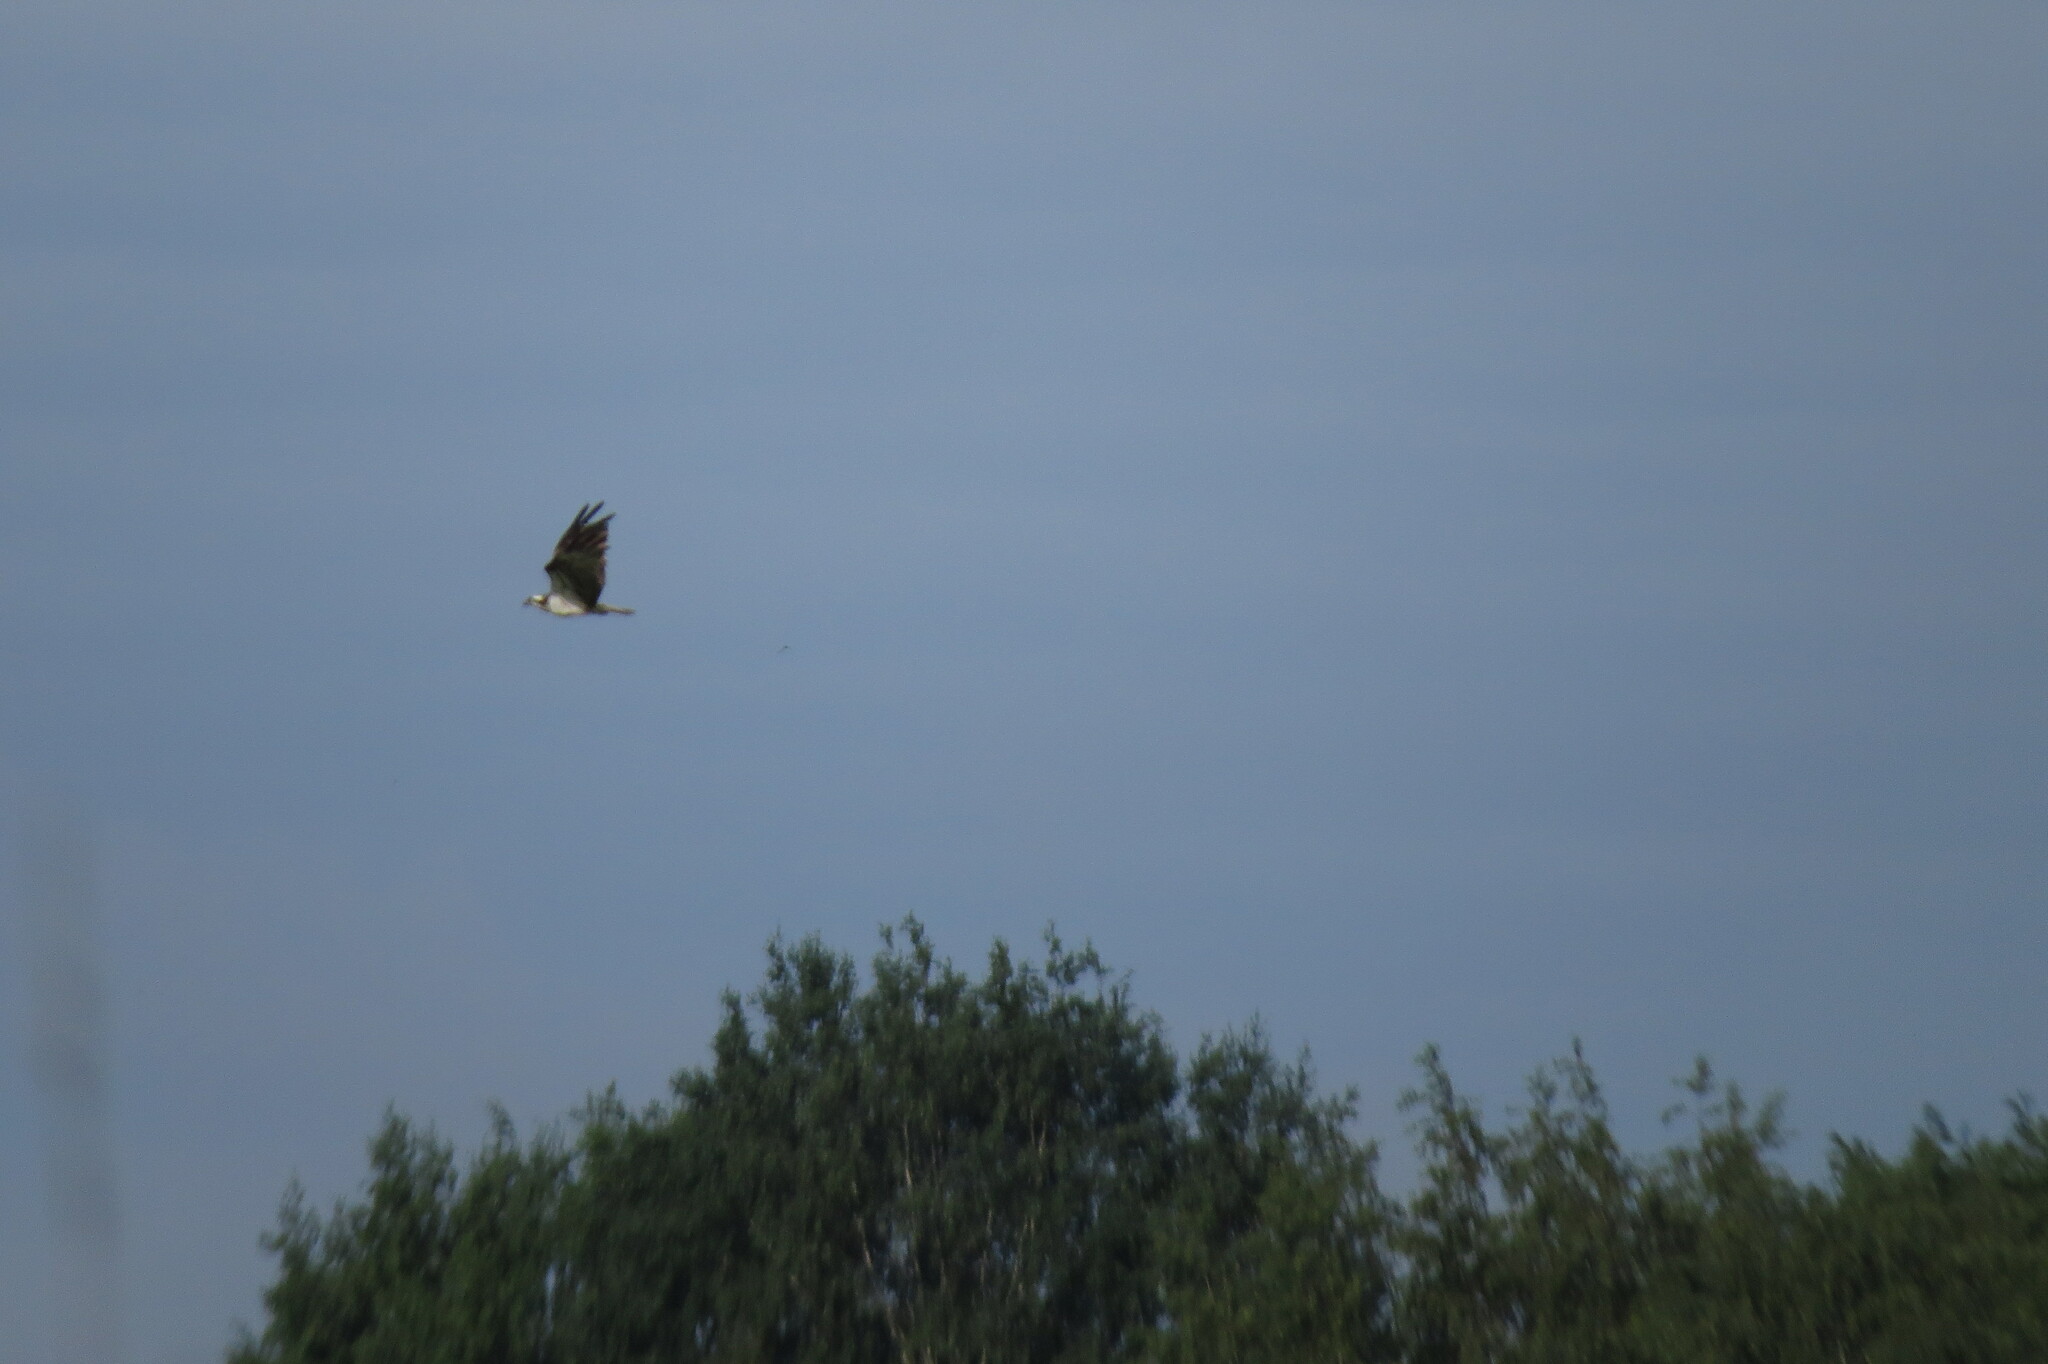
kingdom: Animalia
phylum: Chordata
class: Aves
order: Accipitriformes
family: Pandionidae
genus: Pandion
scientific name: Pandion haliaetus
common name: Osprey
